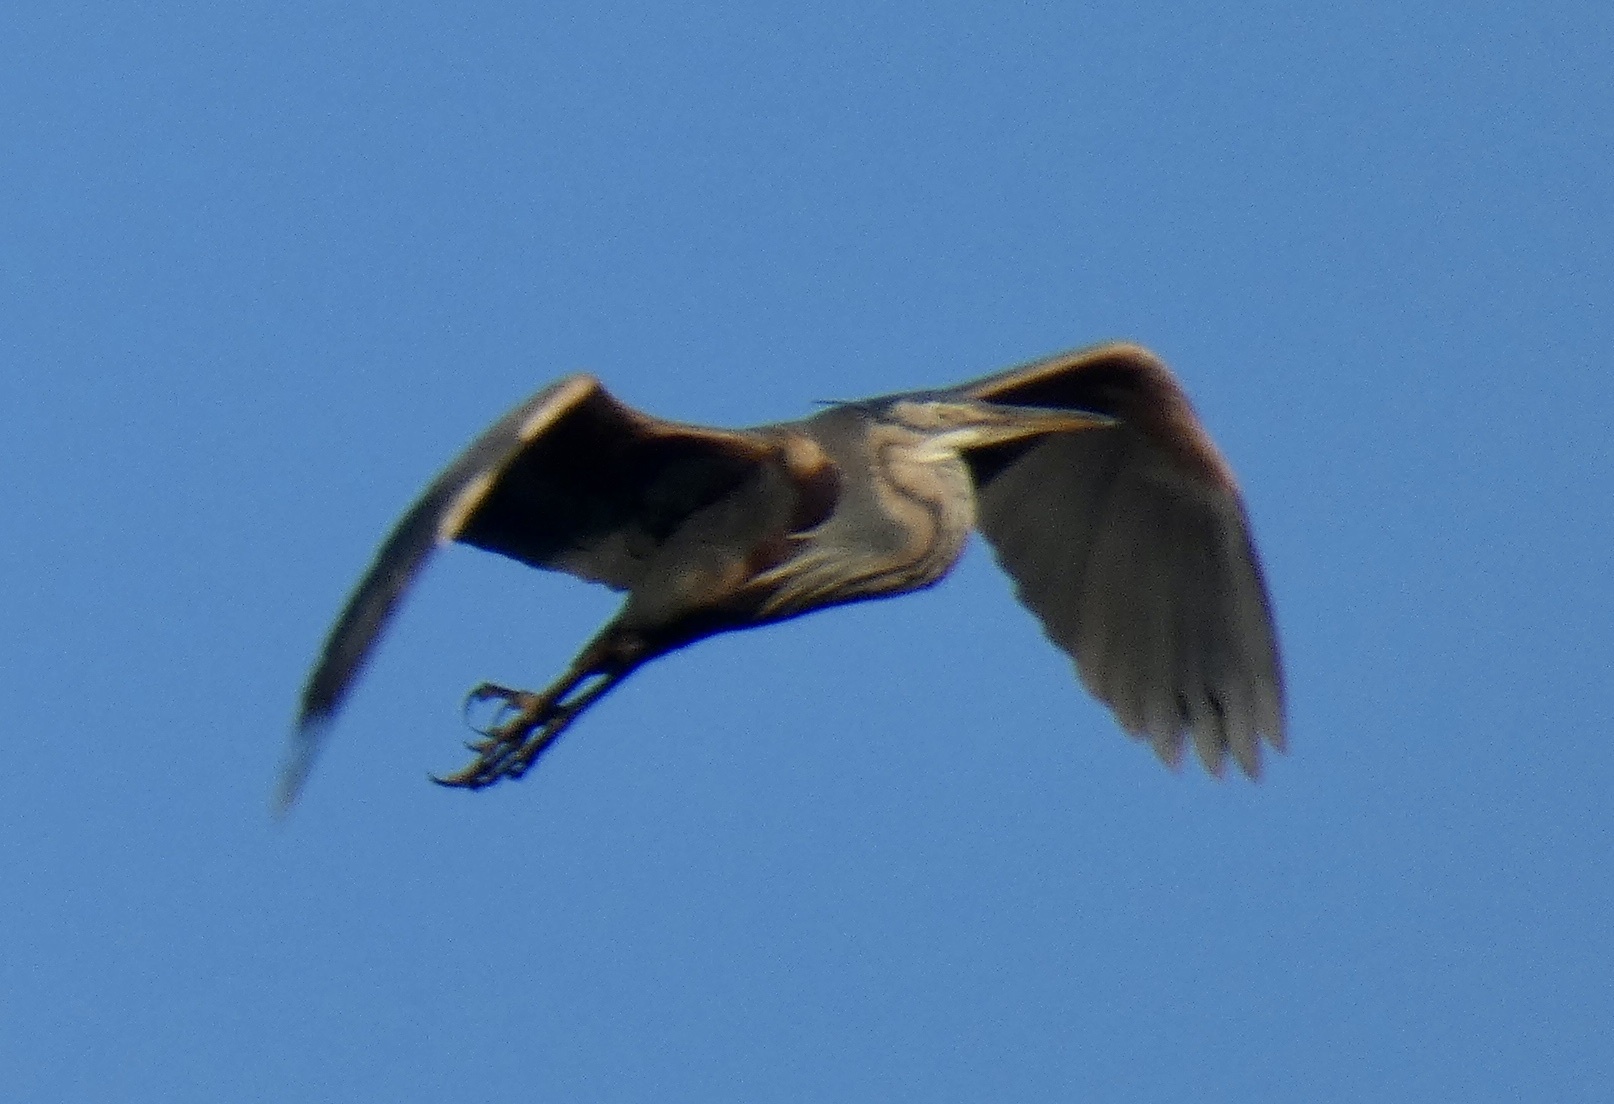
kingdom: Animalia
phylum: Chordata
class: Aves
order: Pelecaniformes
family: Ardeidae
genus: Ardea
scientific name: Ardea purpurea
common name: Purple heron
